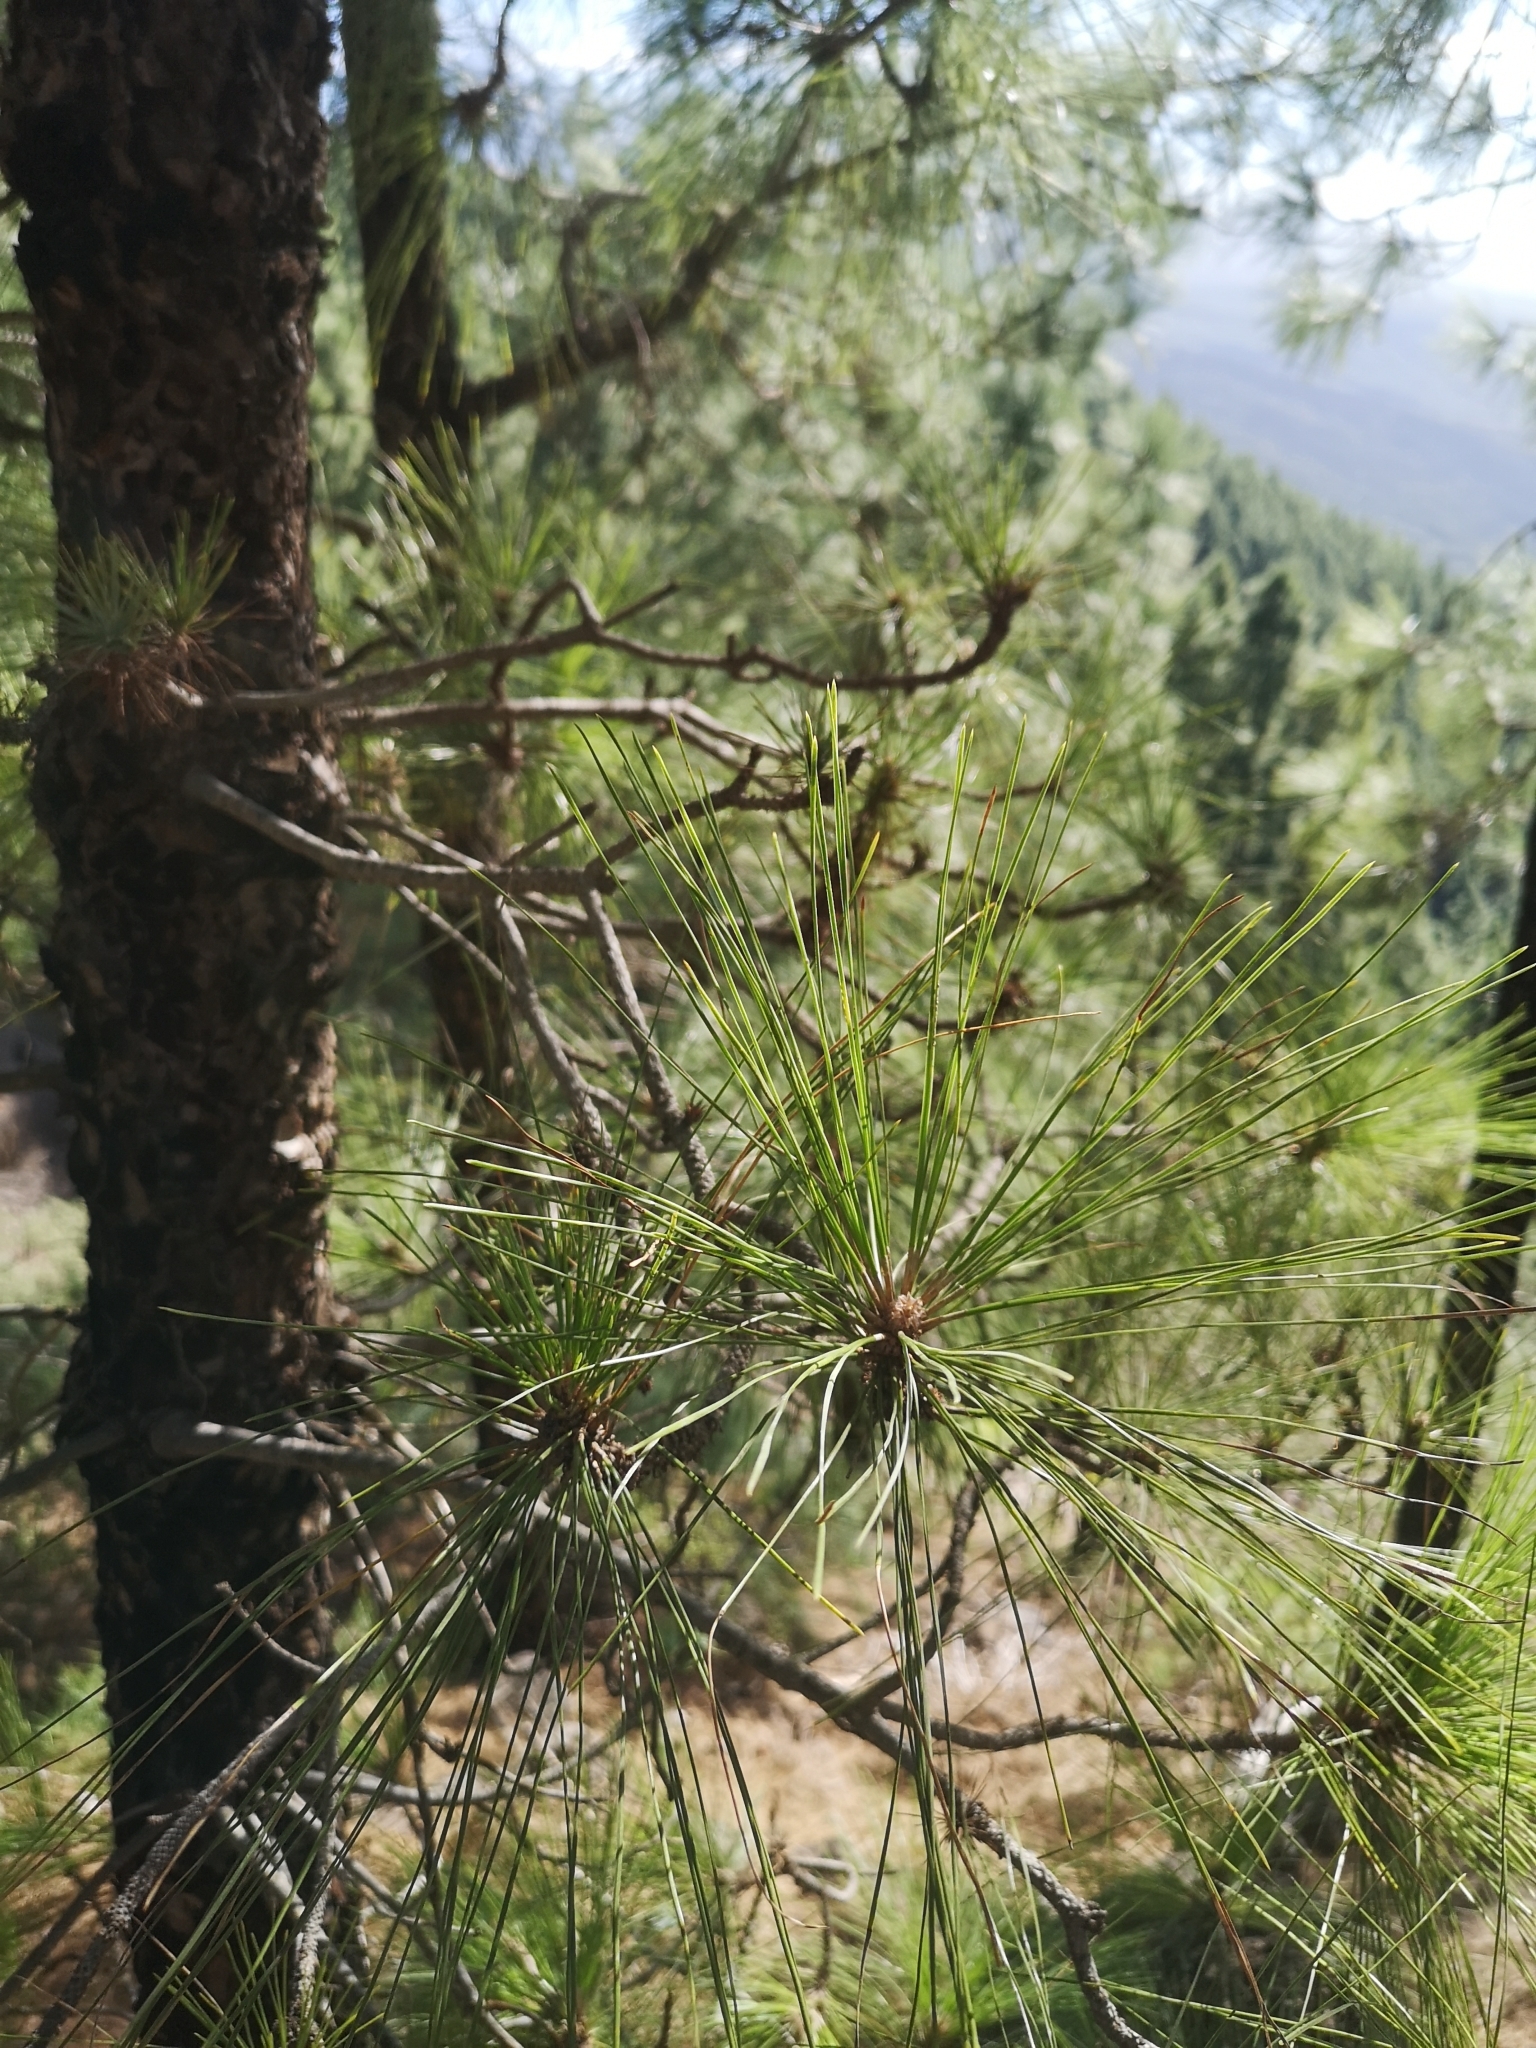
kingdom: Plantae
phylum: Tracheophyta
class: Pinopsida
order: Pinales
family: Pinaceae
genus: Pinus
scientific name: Pinus canariensis
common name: Canary islands pine
